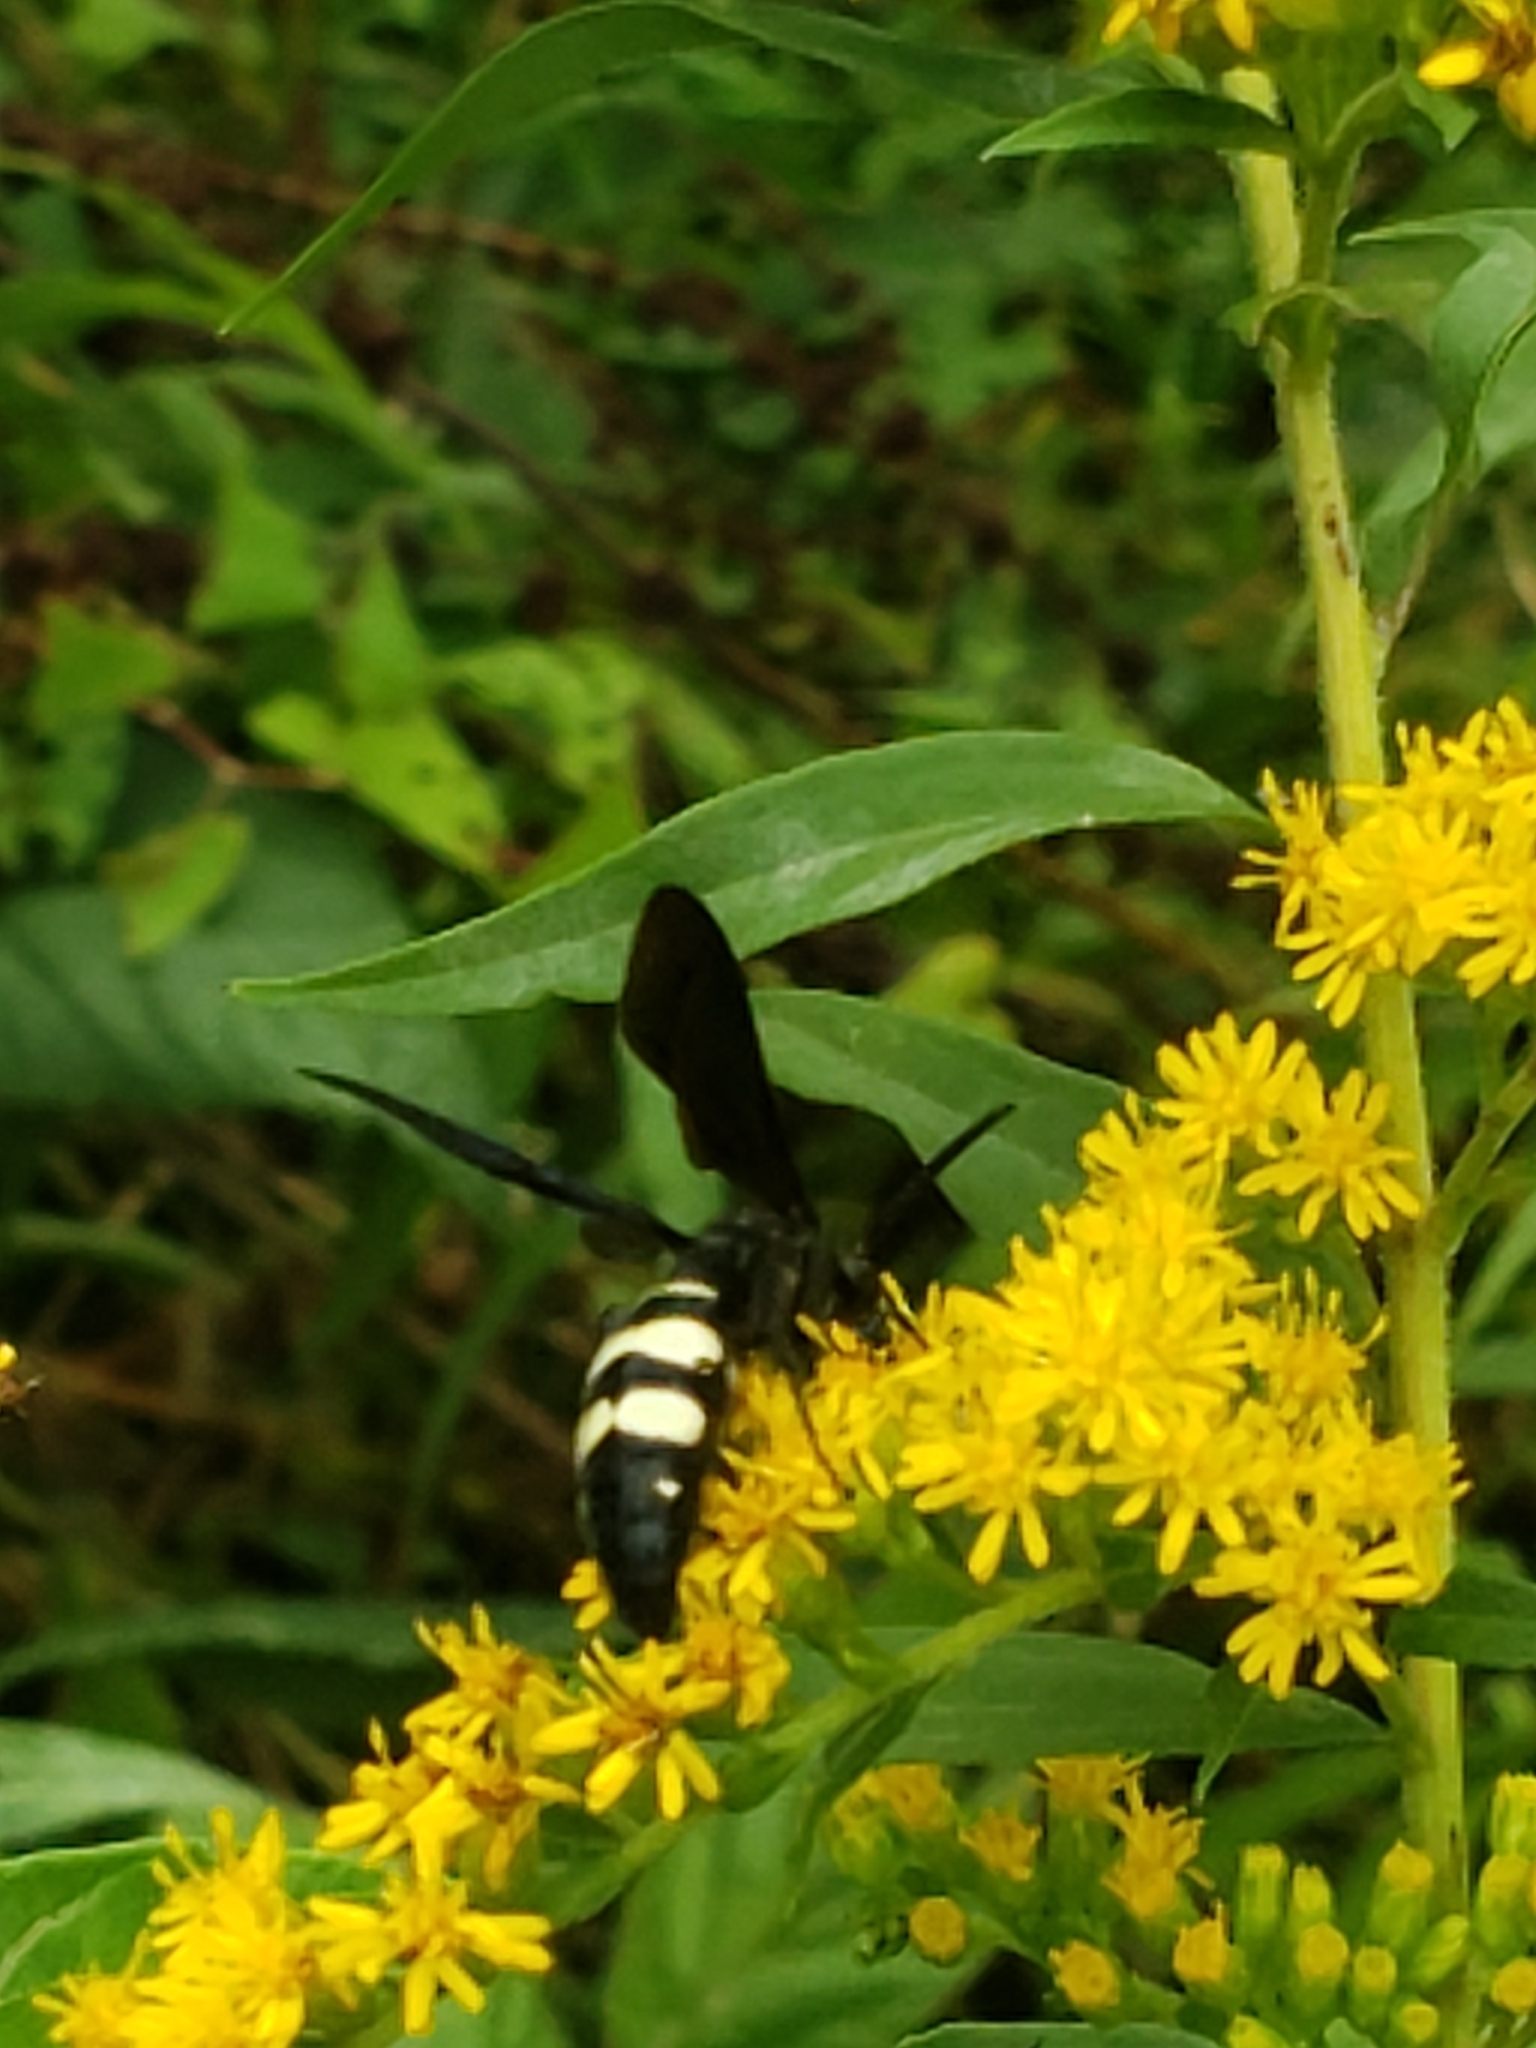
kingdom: Animalia
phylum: Arthropoda
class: Insecta
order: Hymenoptera
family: Scoliidae
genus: Scolia
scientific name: Scolia bicincta
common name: Double-banded scoliid wasp
